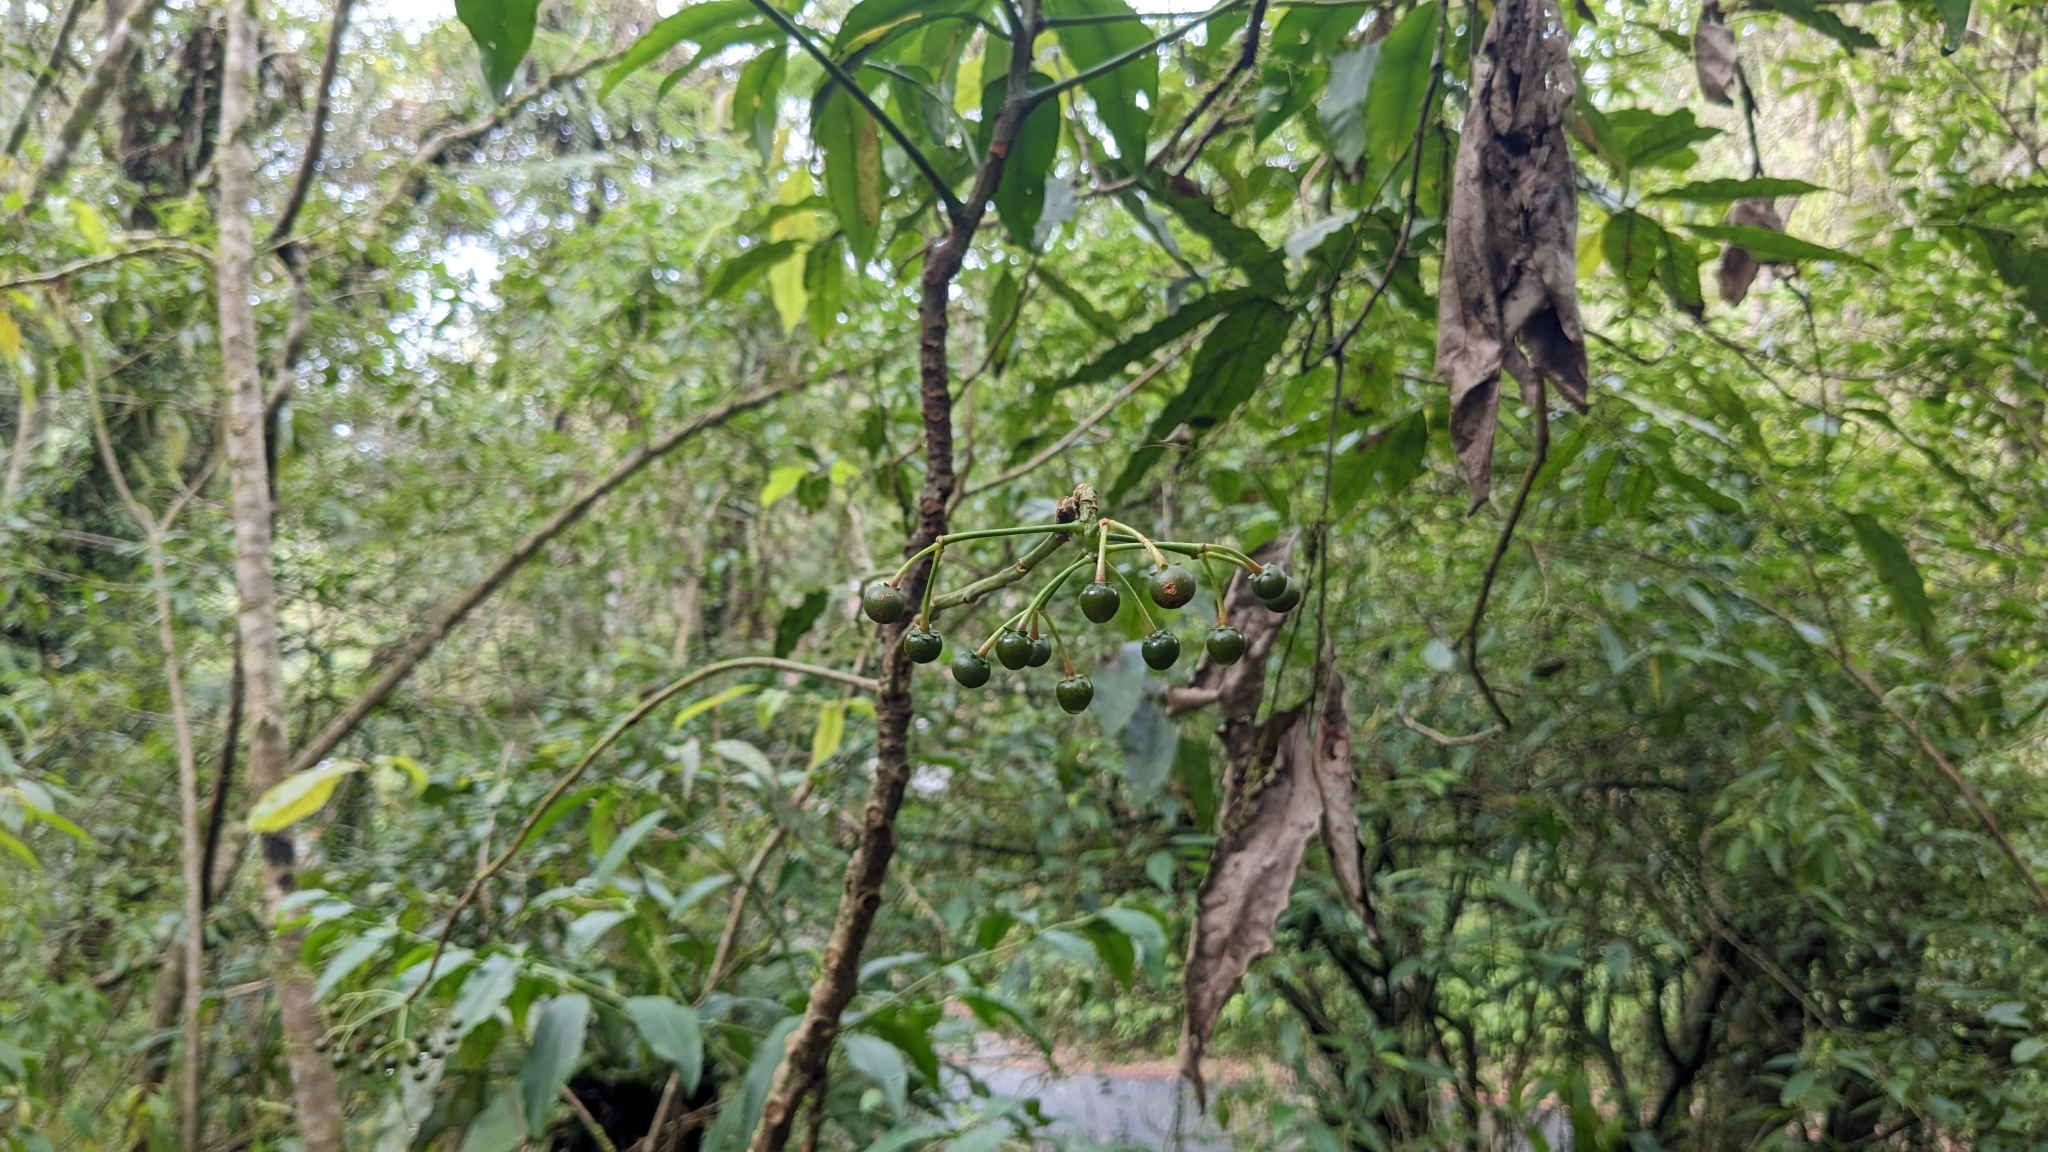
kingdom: Plantae
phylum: Tracheophyta
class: Magnoliopsida
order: Ericales
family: Primulaceae
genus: Ardisia
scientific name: Ardisia polysticta
